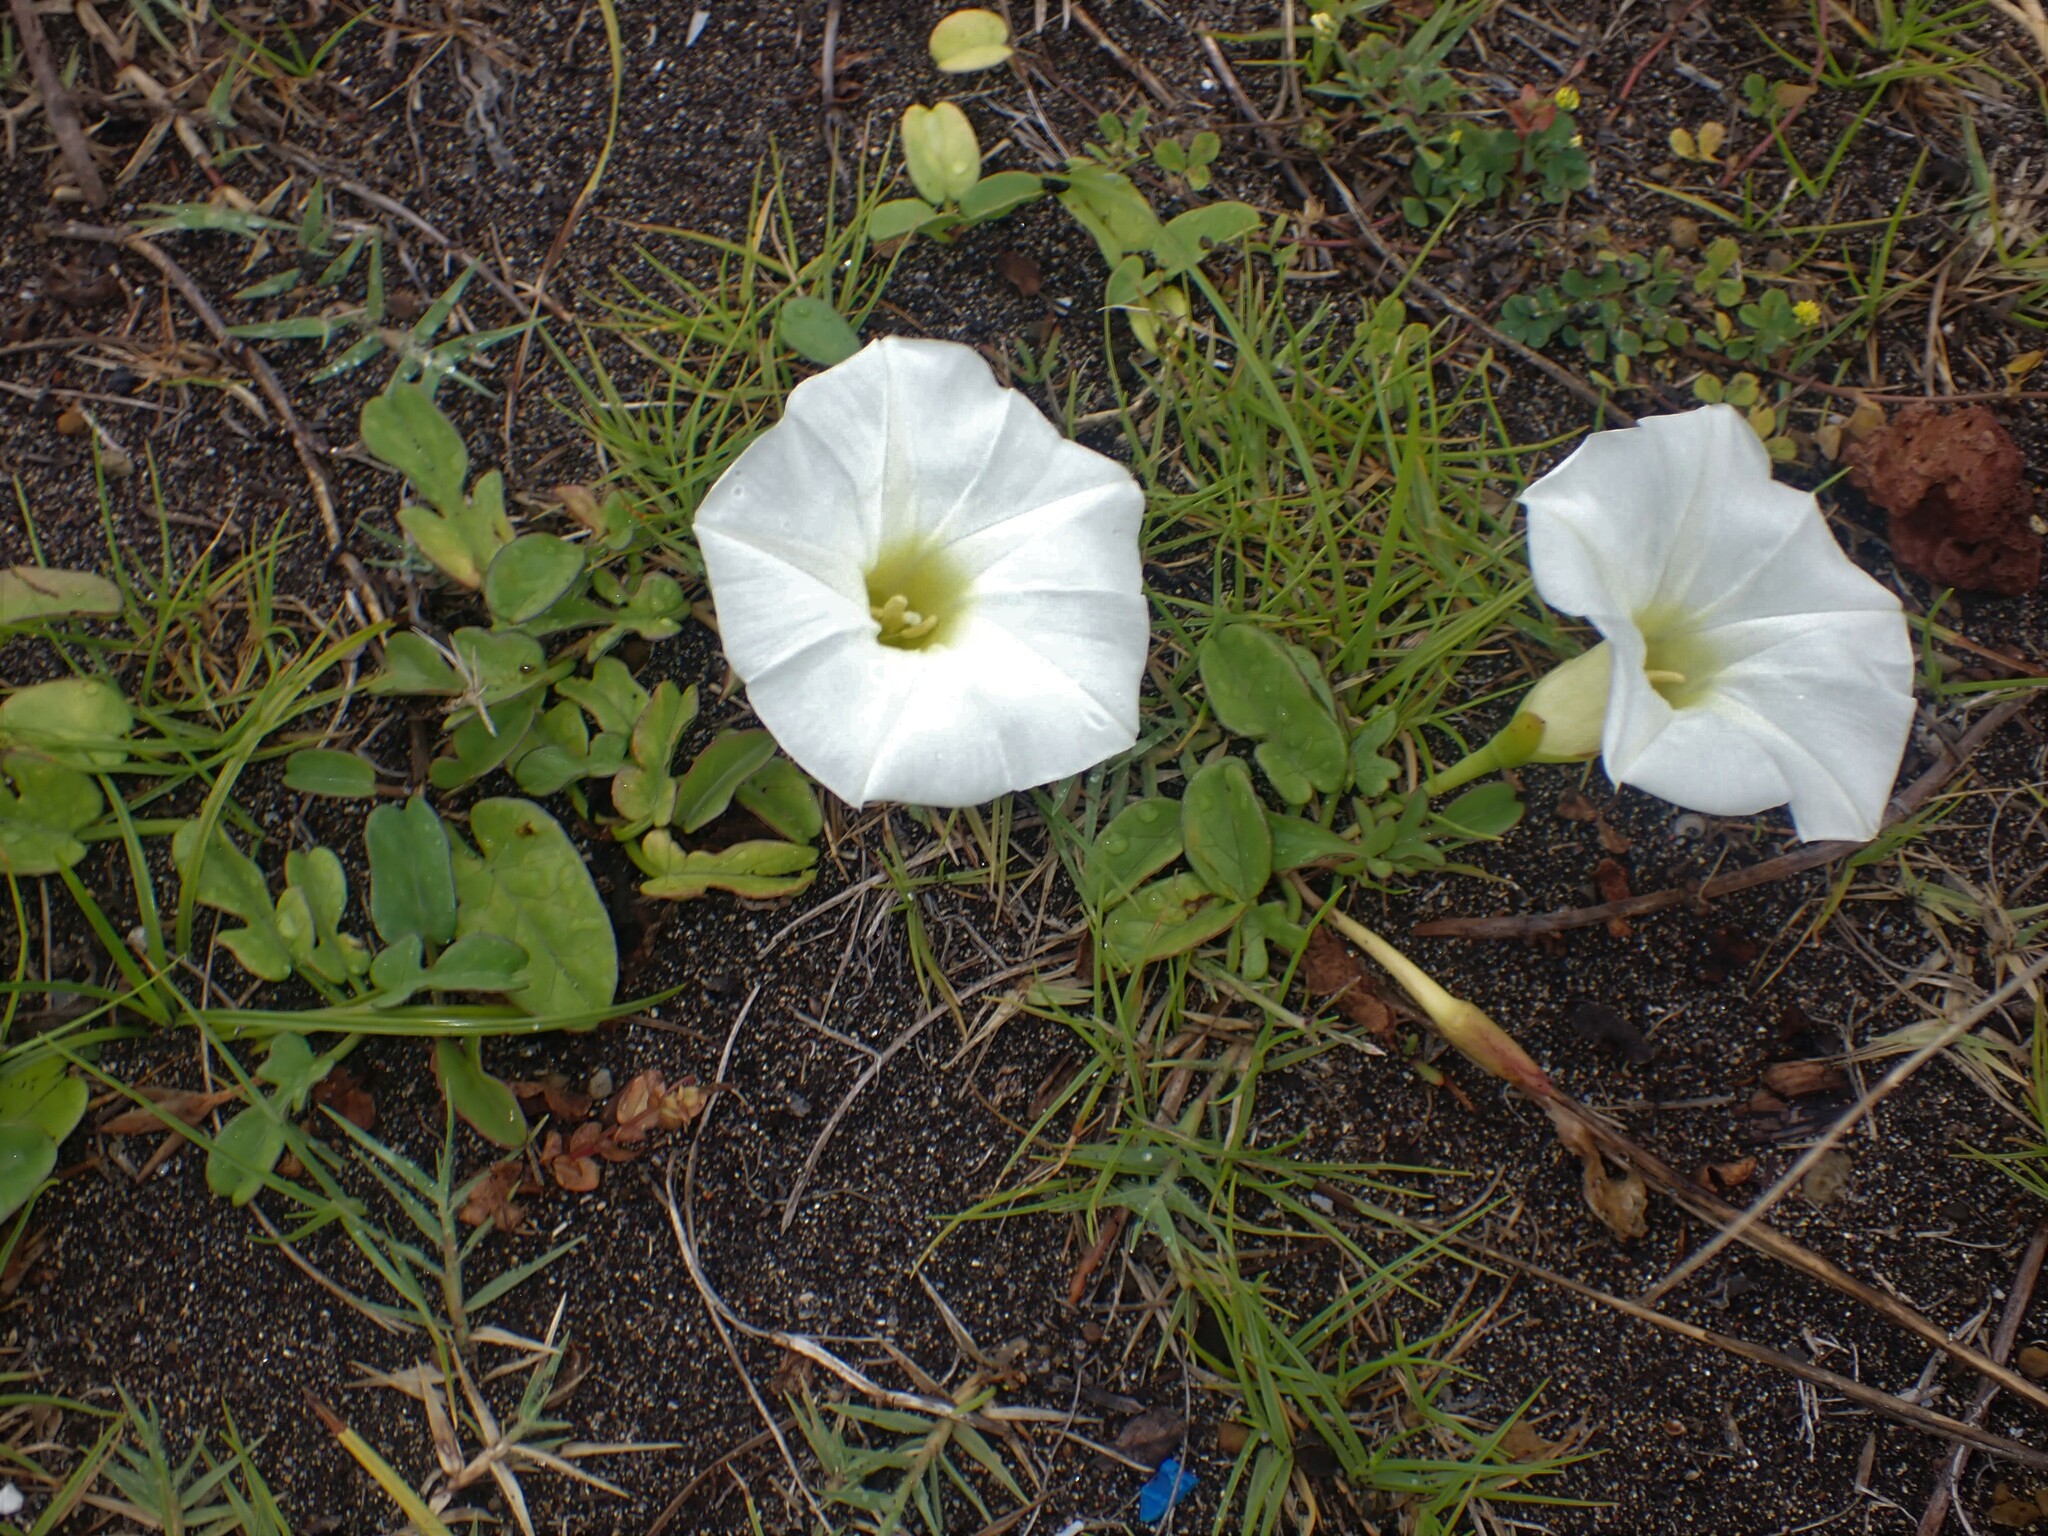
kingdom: Plantae
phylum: Tracheophyta
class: Magnoliopsida
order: Solanales
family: Convolvulaceae
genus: Ipomoea
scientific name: Ipomoea imperati
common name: Fiddle-leaf morning-glory
